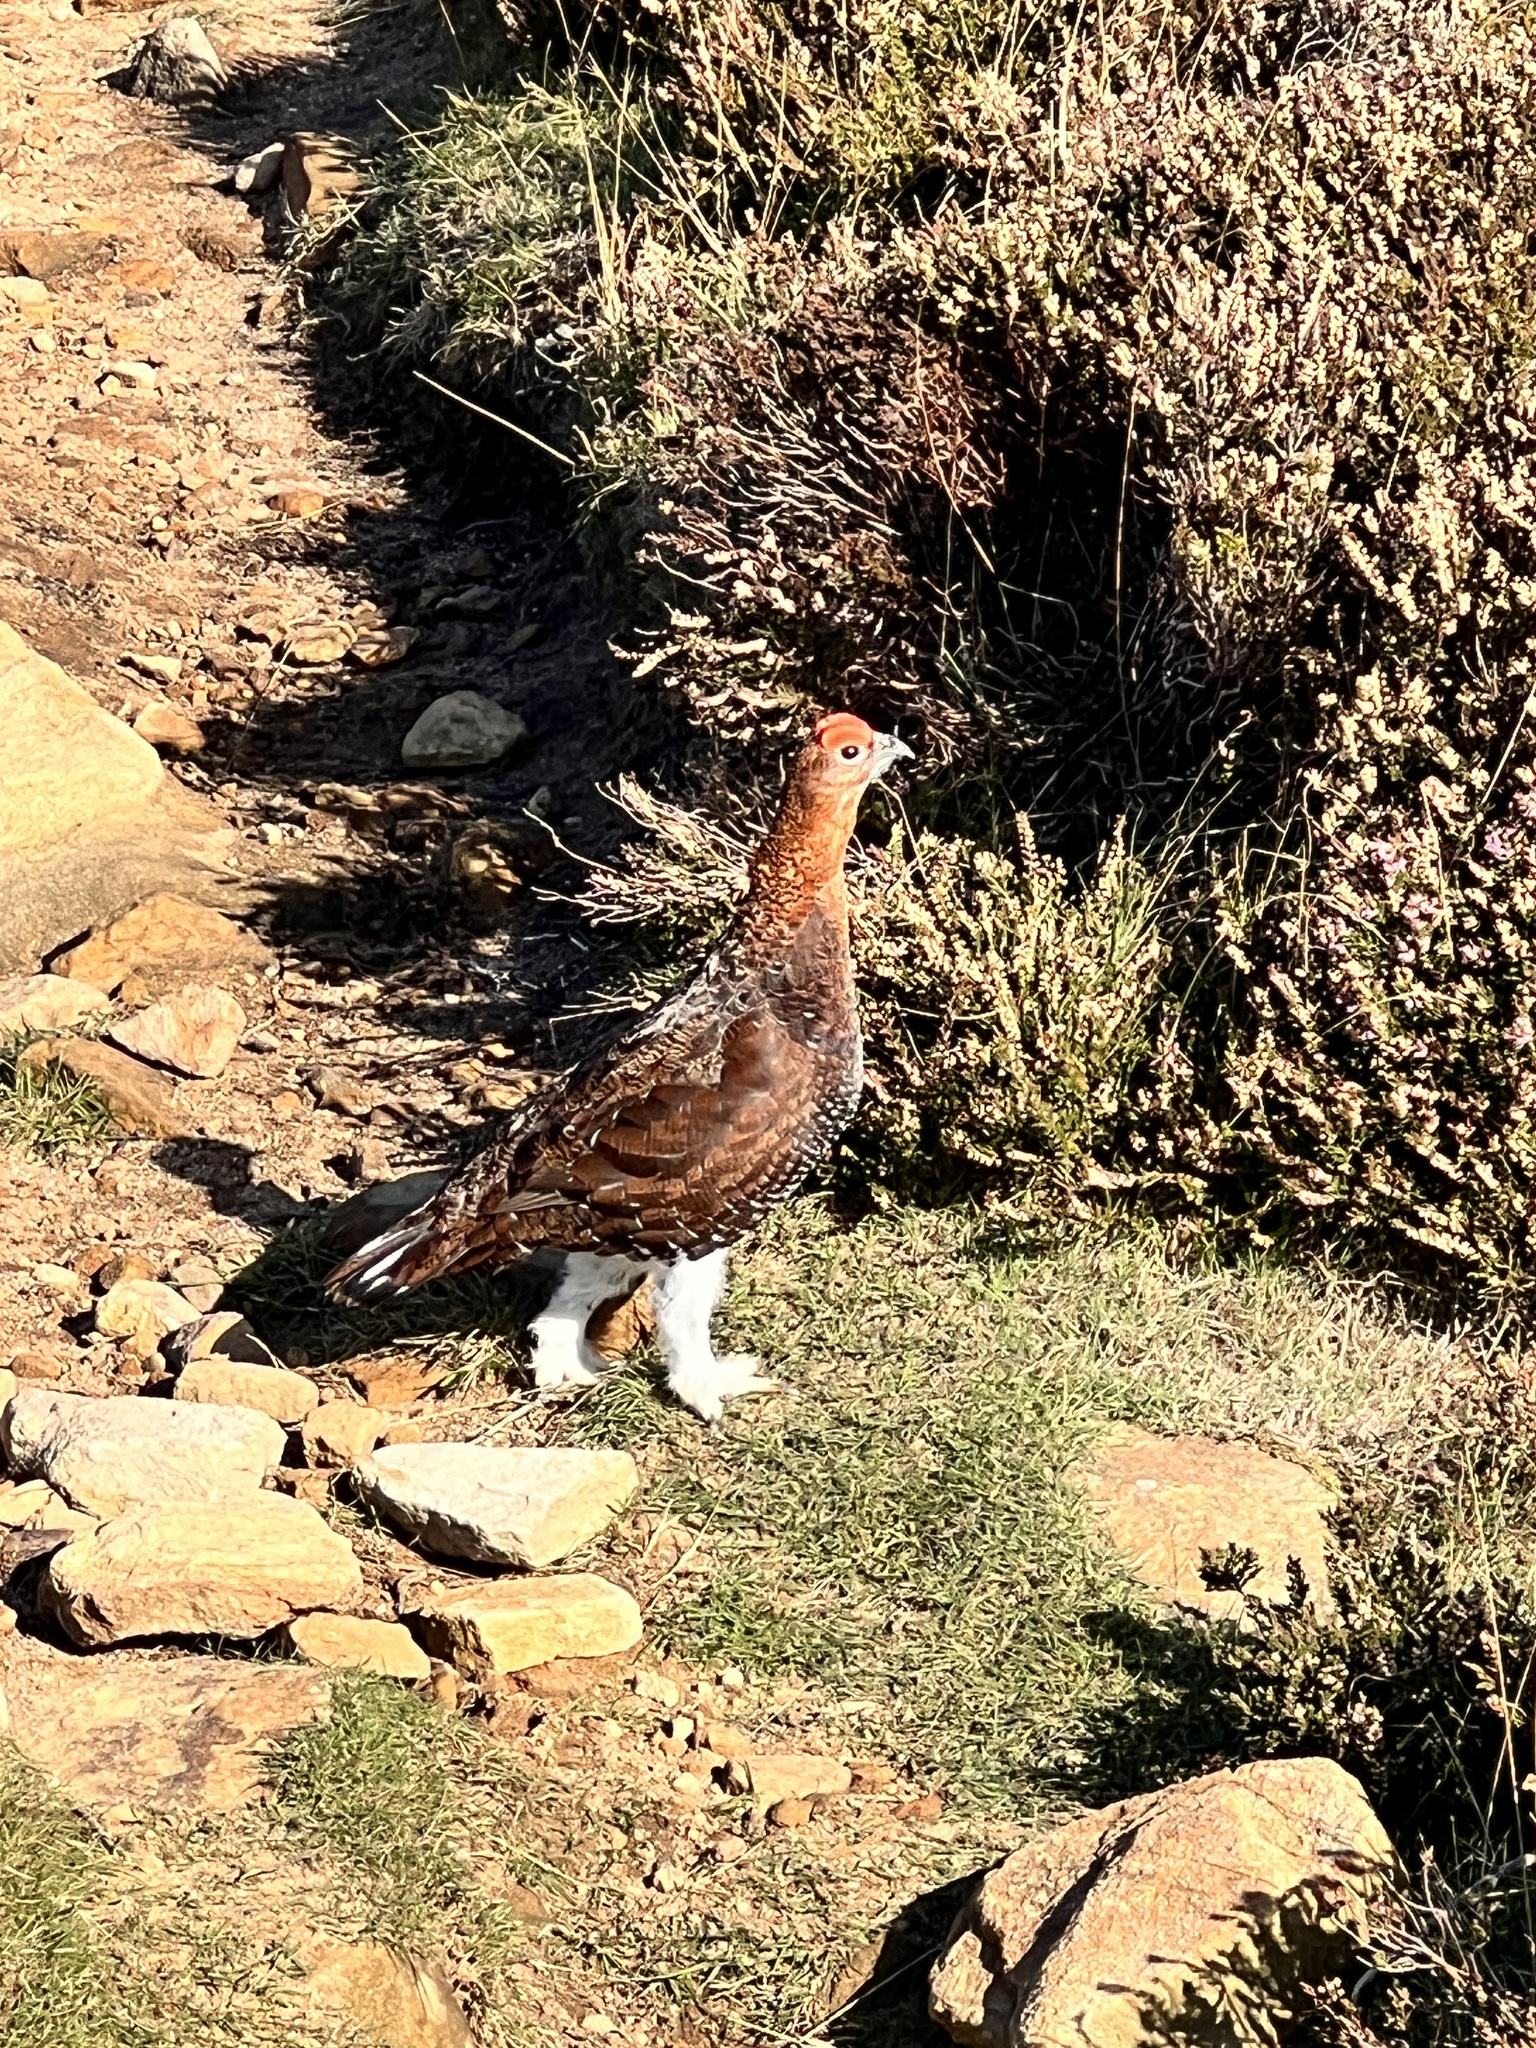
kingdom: Animalia
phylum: Chordata
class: Aves
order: Galliformes
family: Phasianidae
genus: Lagopus
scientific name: Lagopus lagopus
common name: Willow ptarmigan
